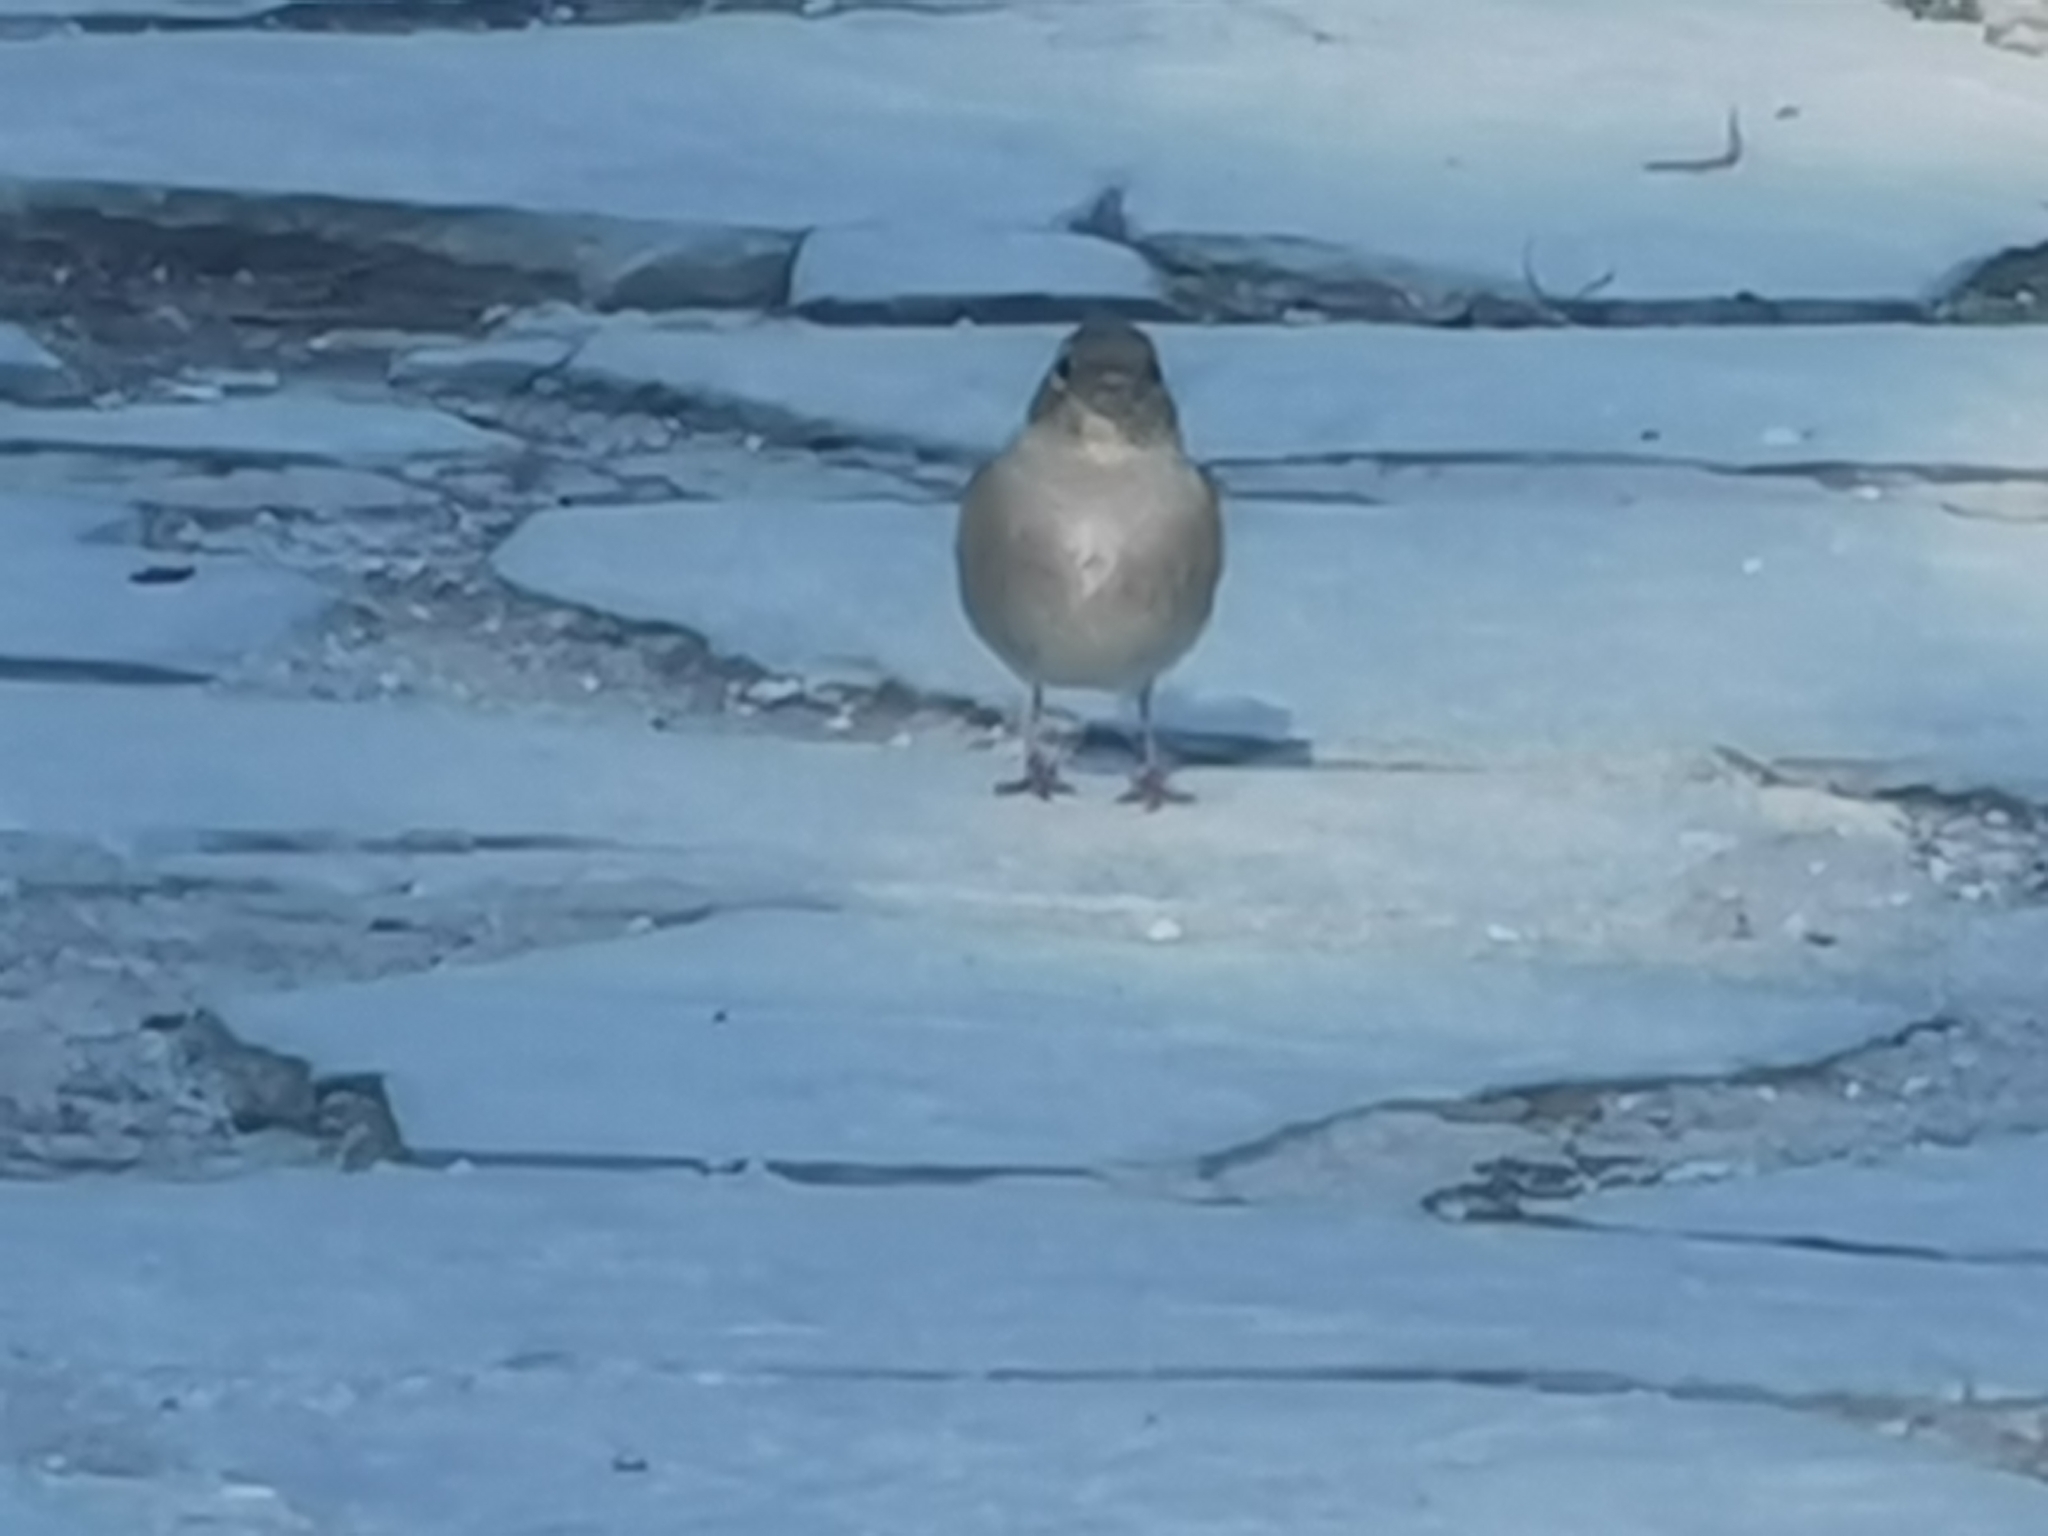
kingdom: Animalia
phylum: Chordata
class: Aves
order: Passeriformes
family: Fringillidae
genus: Fringilla
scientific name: Fringilla coelebs
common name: Common chaffinch
